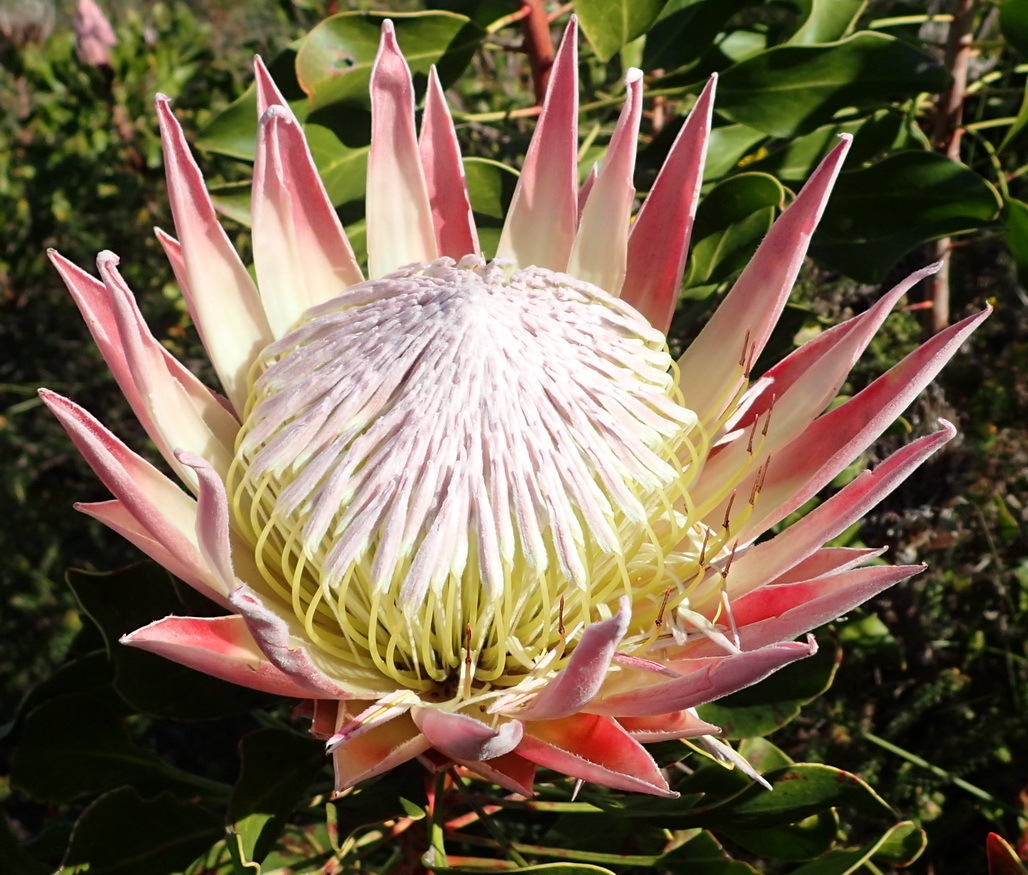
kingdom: Plantae
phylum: Tracheophyta
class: Magnoliopsida
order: Proteales
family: Proteaceae
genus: Protea
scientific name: Protea cynaroides
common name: King protea
